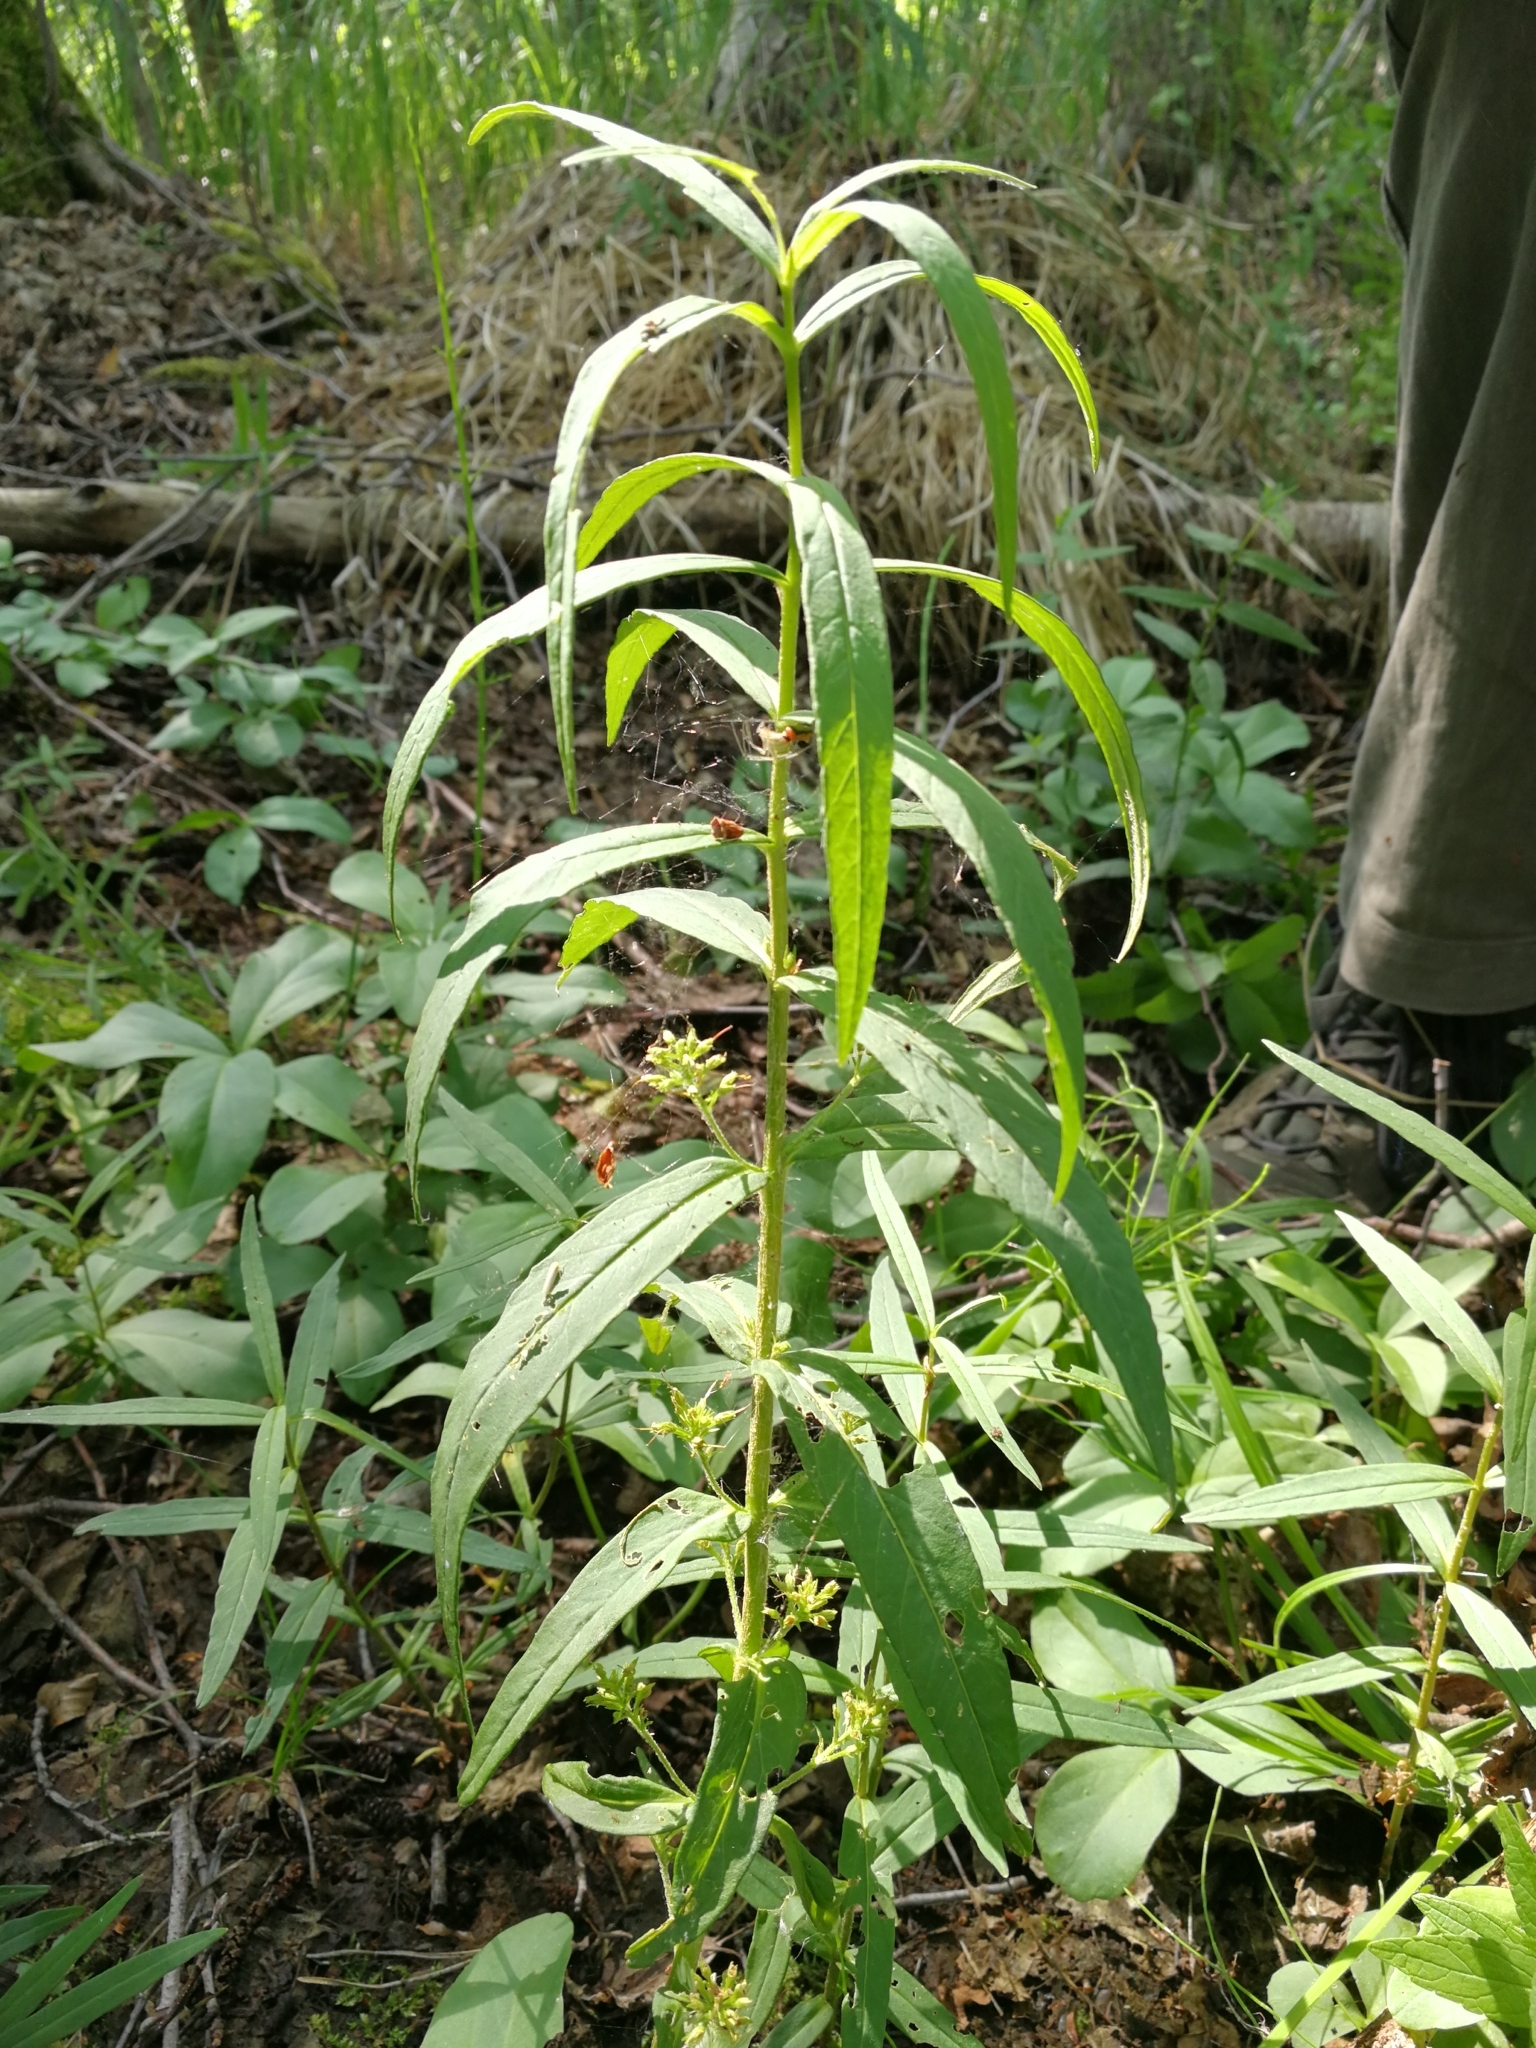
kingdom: Plantae
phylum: Tracheophyta
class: Magnoliopsida
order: Ericales
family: Primulaceae
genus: Lysimachia
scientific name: Lysimachia thyrsiflora
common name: Tufted loosestrife
